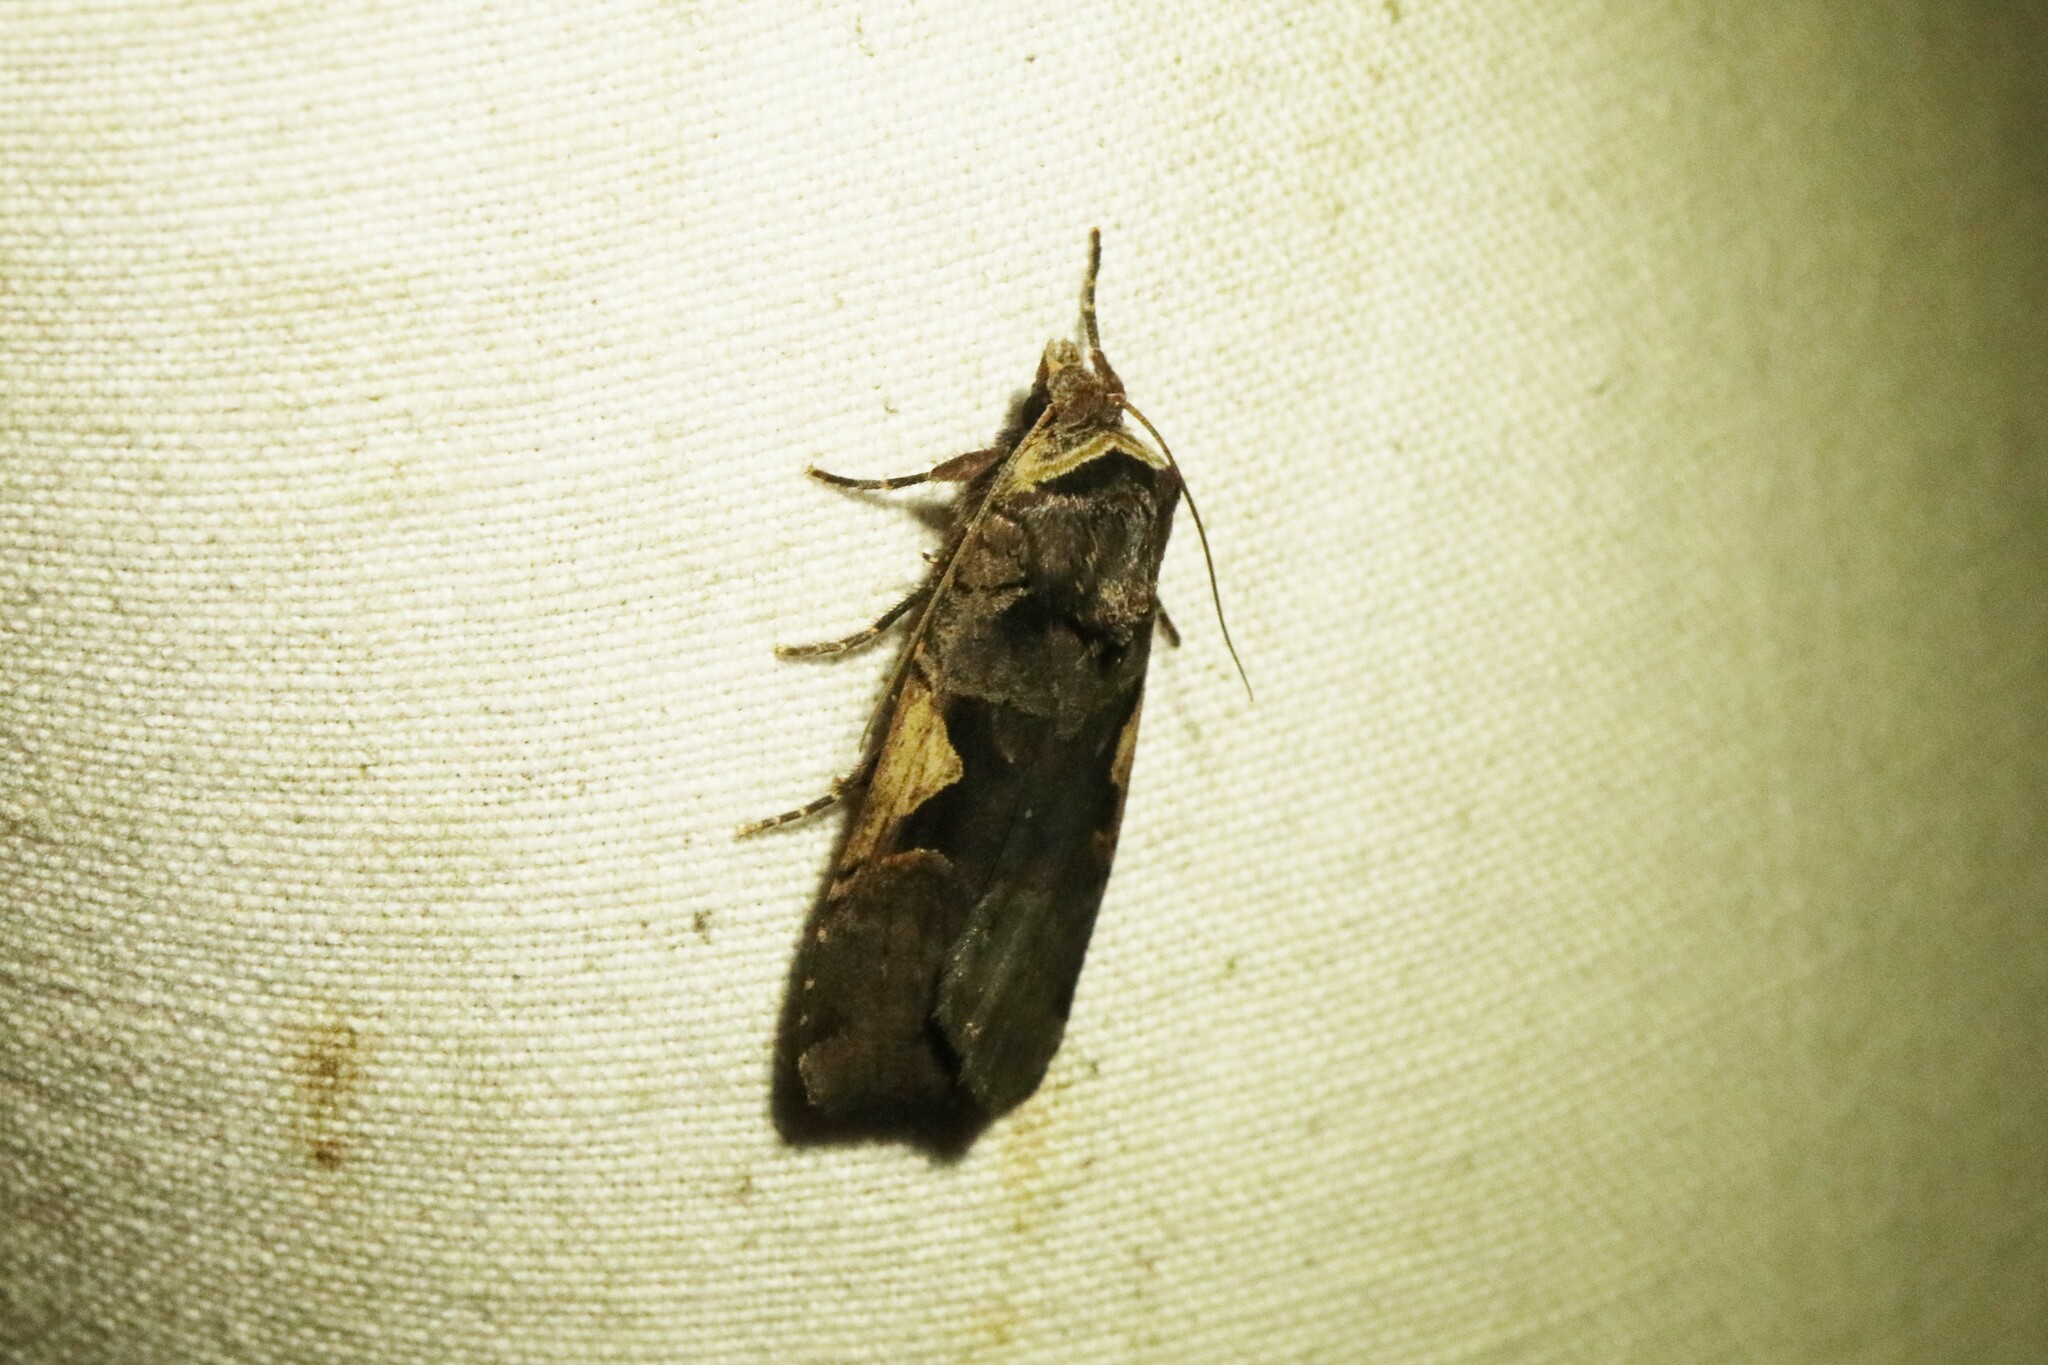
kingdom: Animalia
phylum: Arthropoda
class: Insecta
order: Lepidoptera
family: Noctuidae
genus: Xestia
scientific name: Xestia
